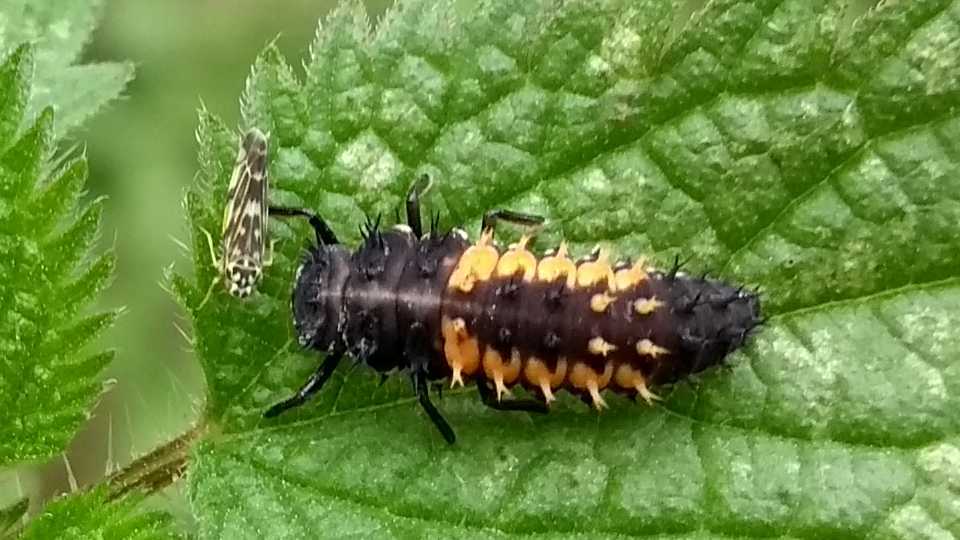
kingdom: Animalia
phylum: Arthropoda
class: Insecta
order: Coleoptera
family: Coccinellidae
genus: Harmonia
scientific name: Harmonia axyridis
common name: Harlequin ladybird
